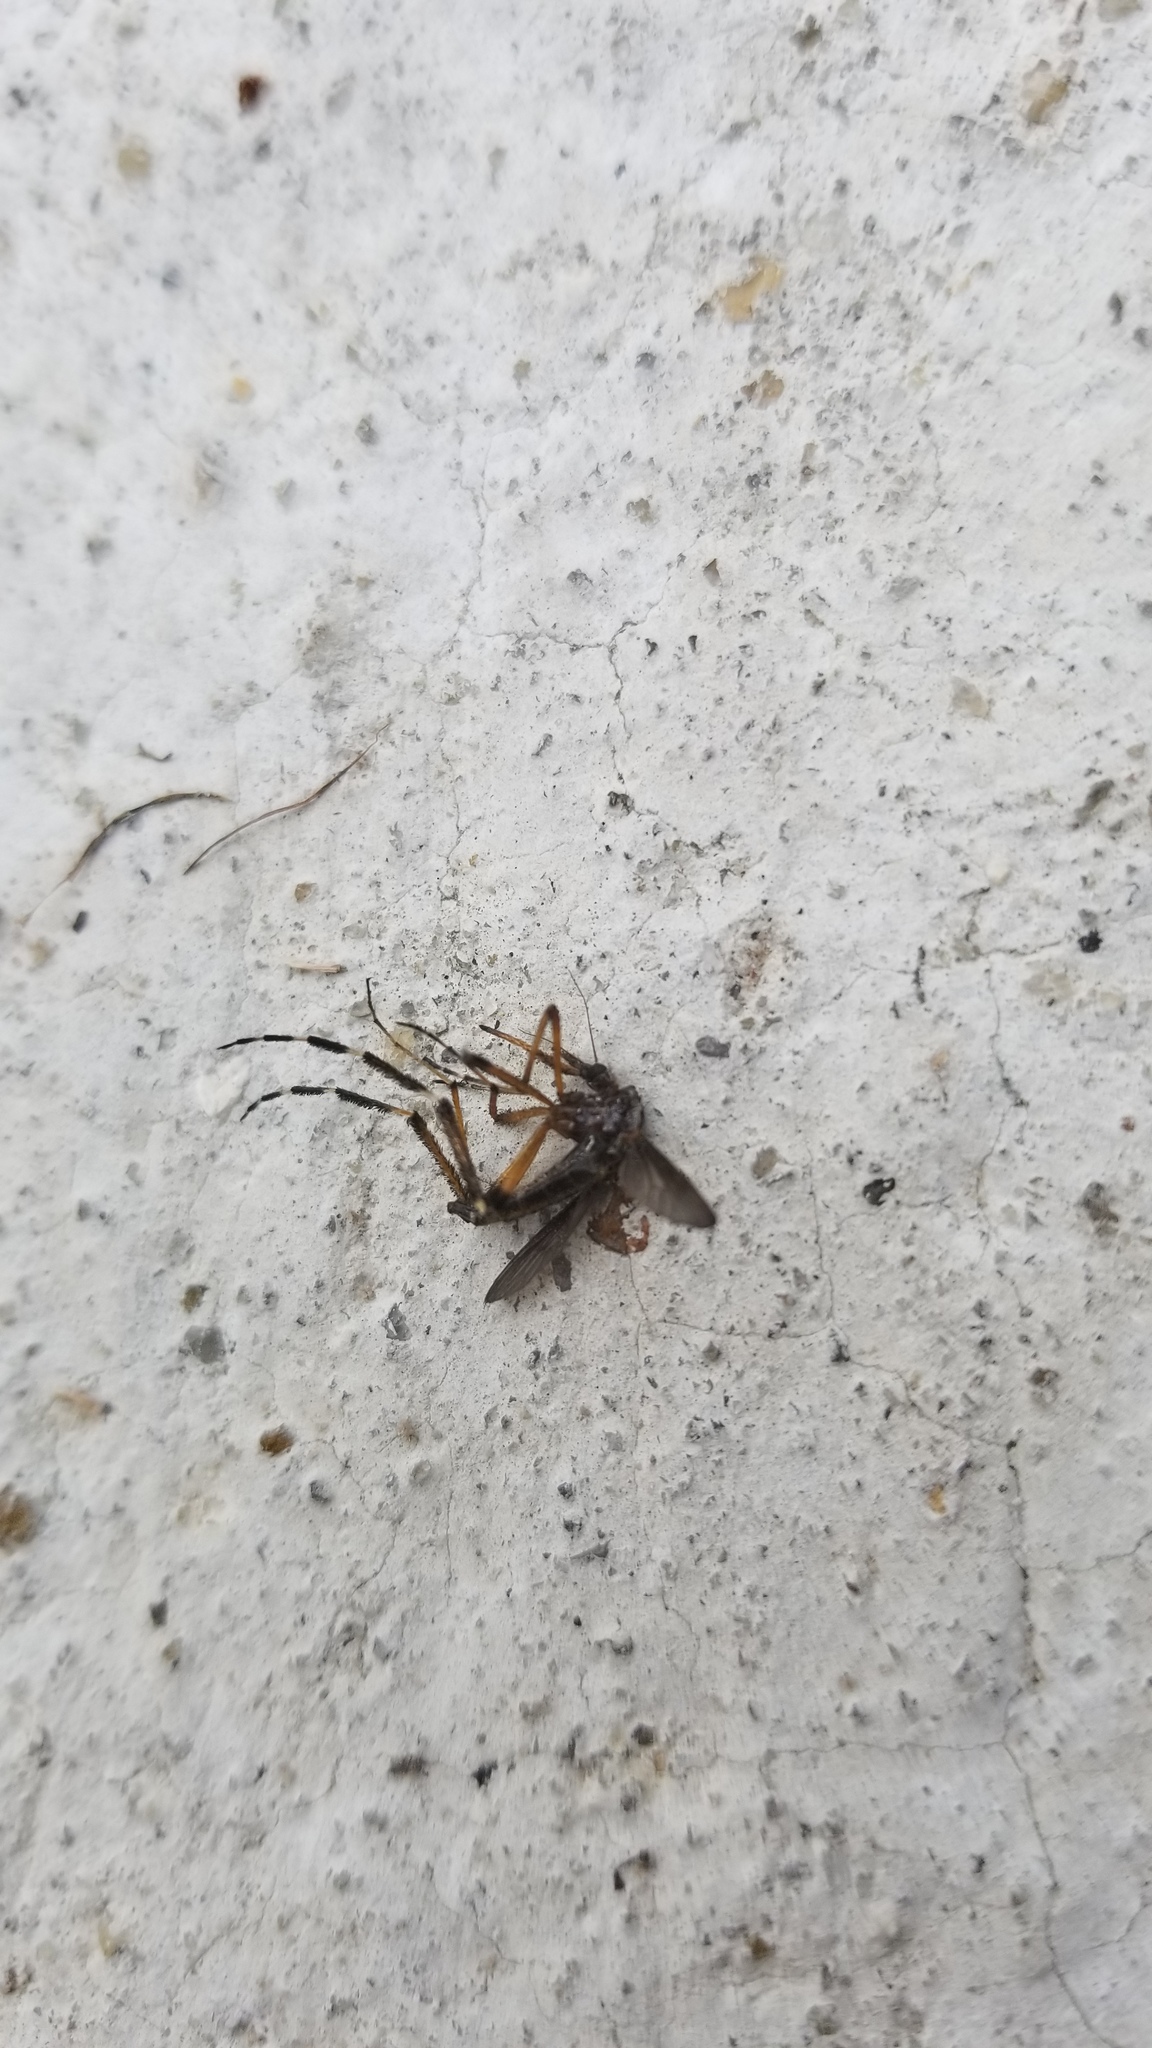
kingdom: Animalia
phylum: Arthropoda
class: Insecta
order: Diptera
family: Culicidae
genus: Psorophora
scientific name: Psorophora ciliata
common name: Gallinipper
